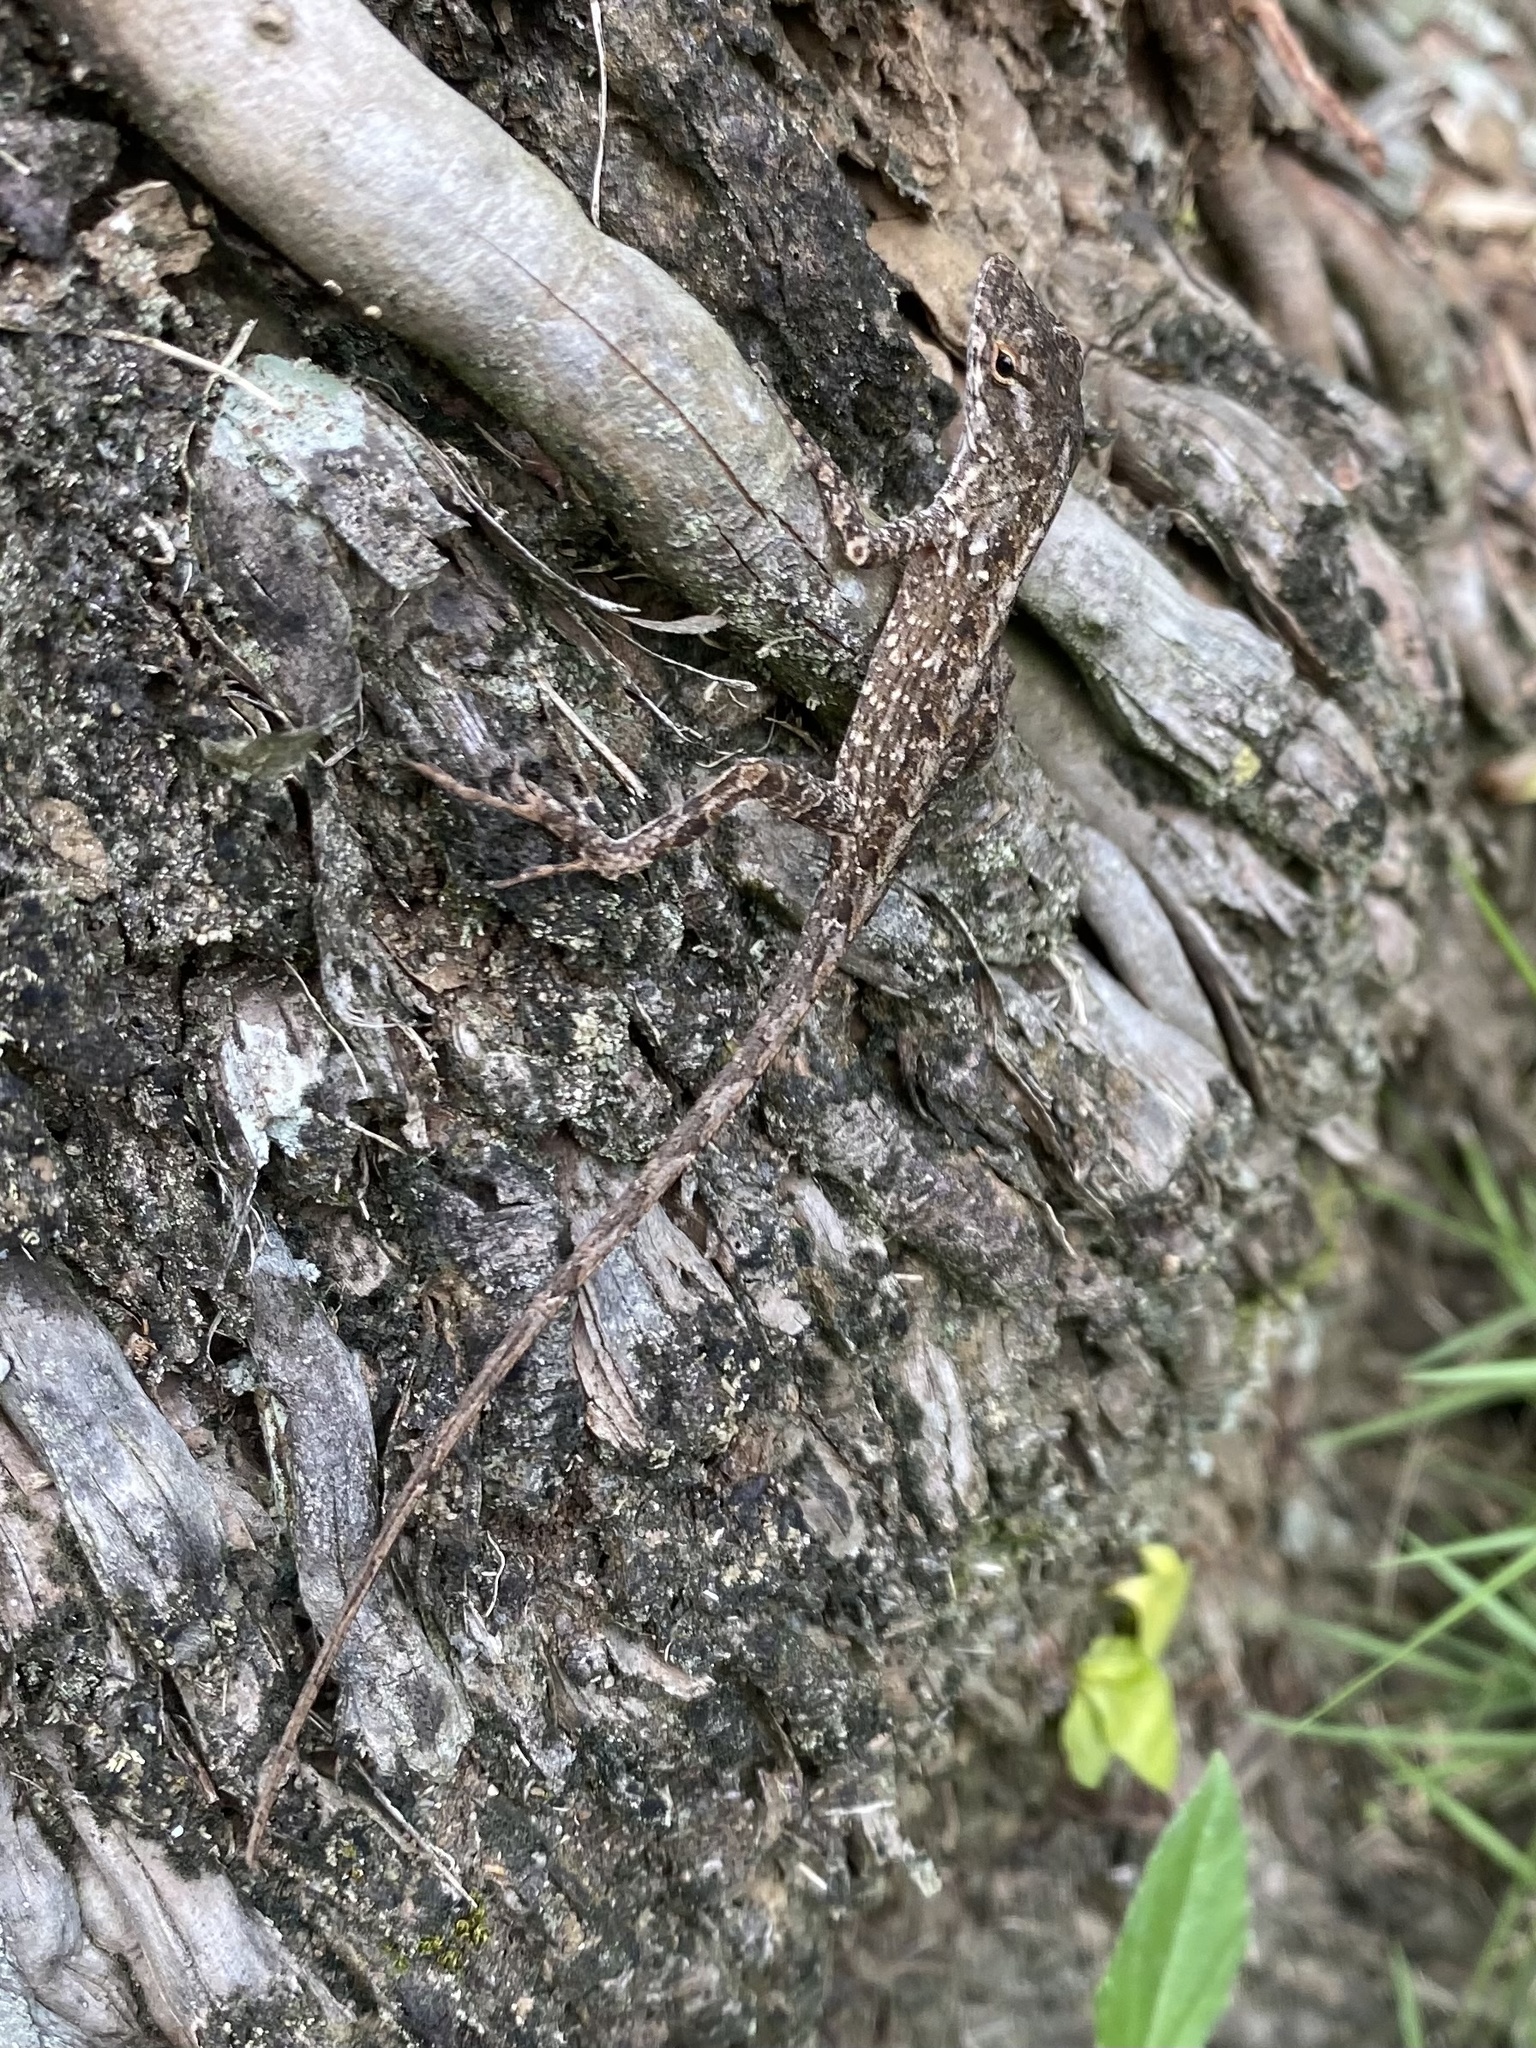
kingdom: Animalia
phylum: Chordata
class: Squamata
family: Dactyloidae
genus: Anolis
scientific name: Anolis sagrei
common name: Brown anole
